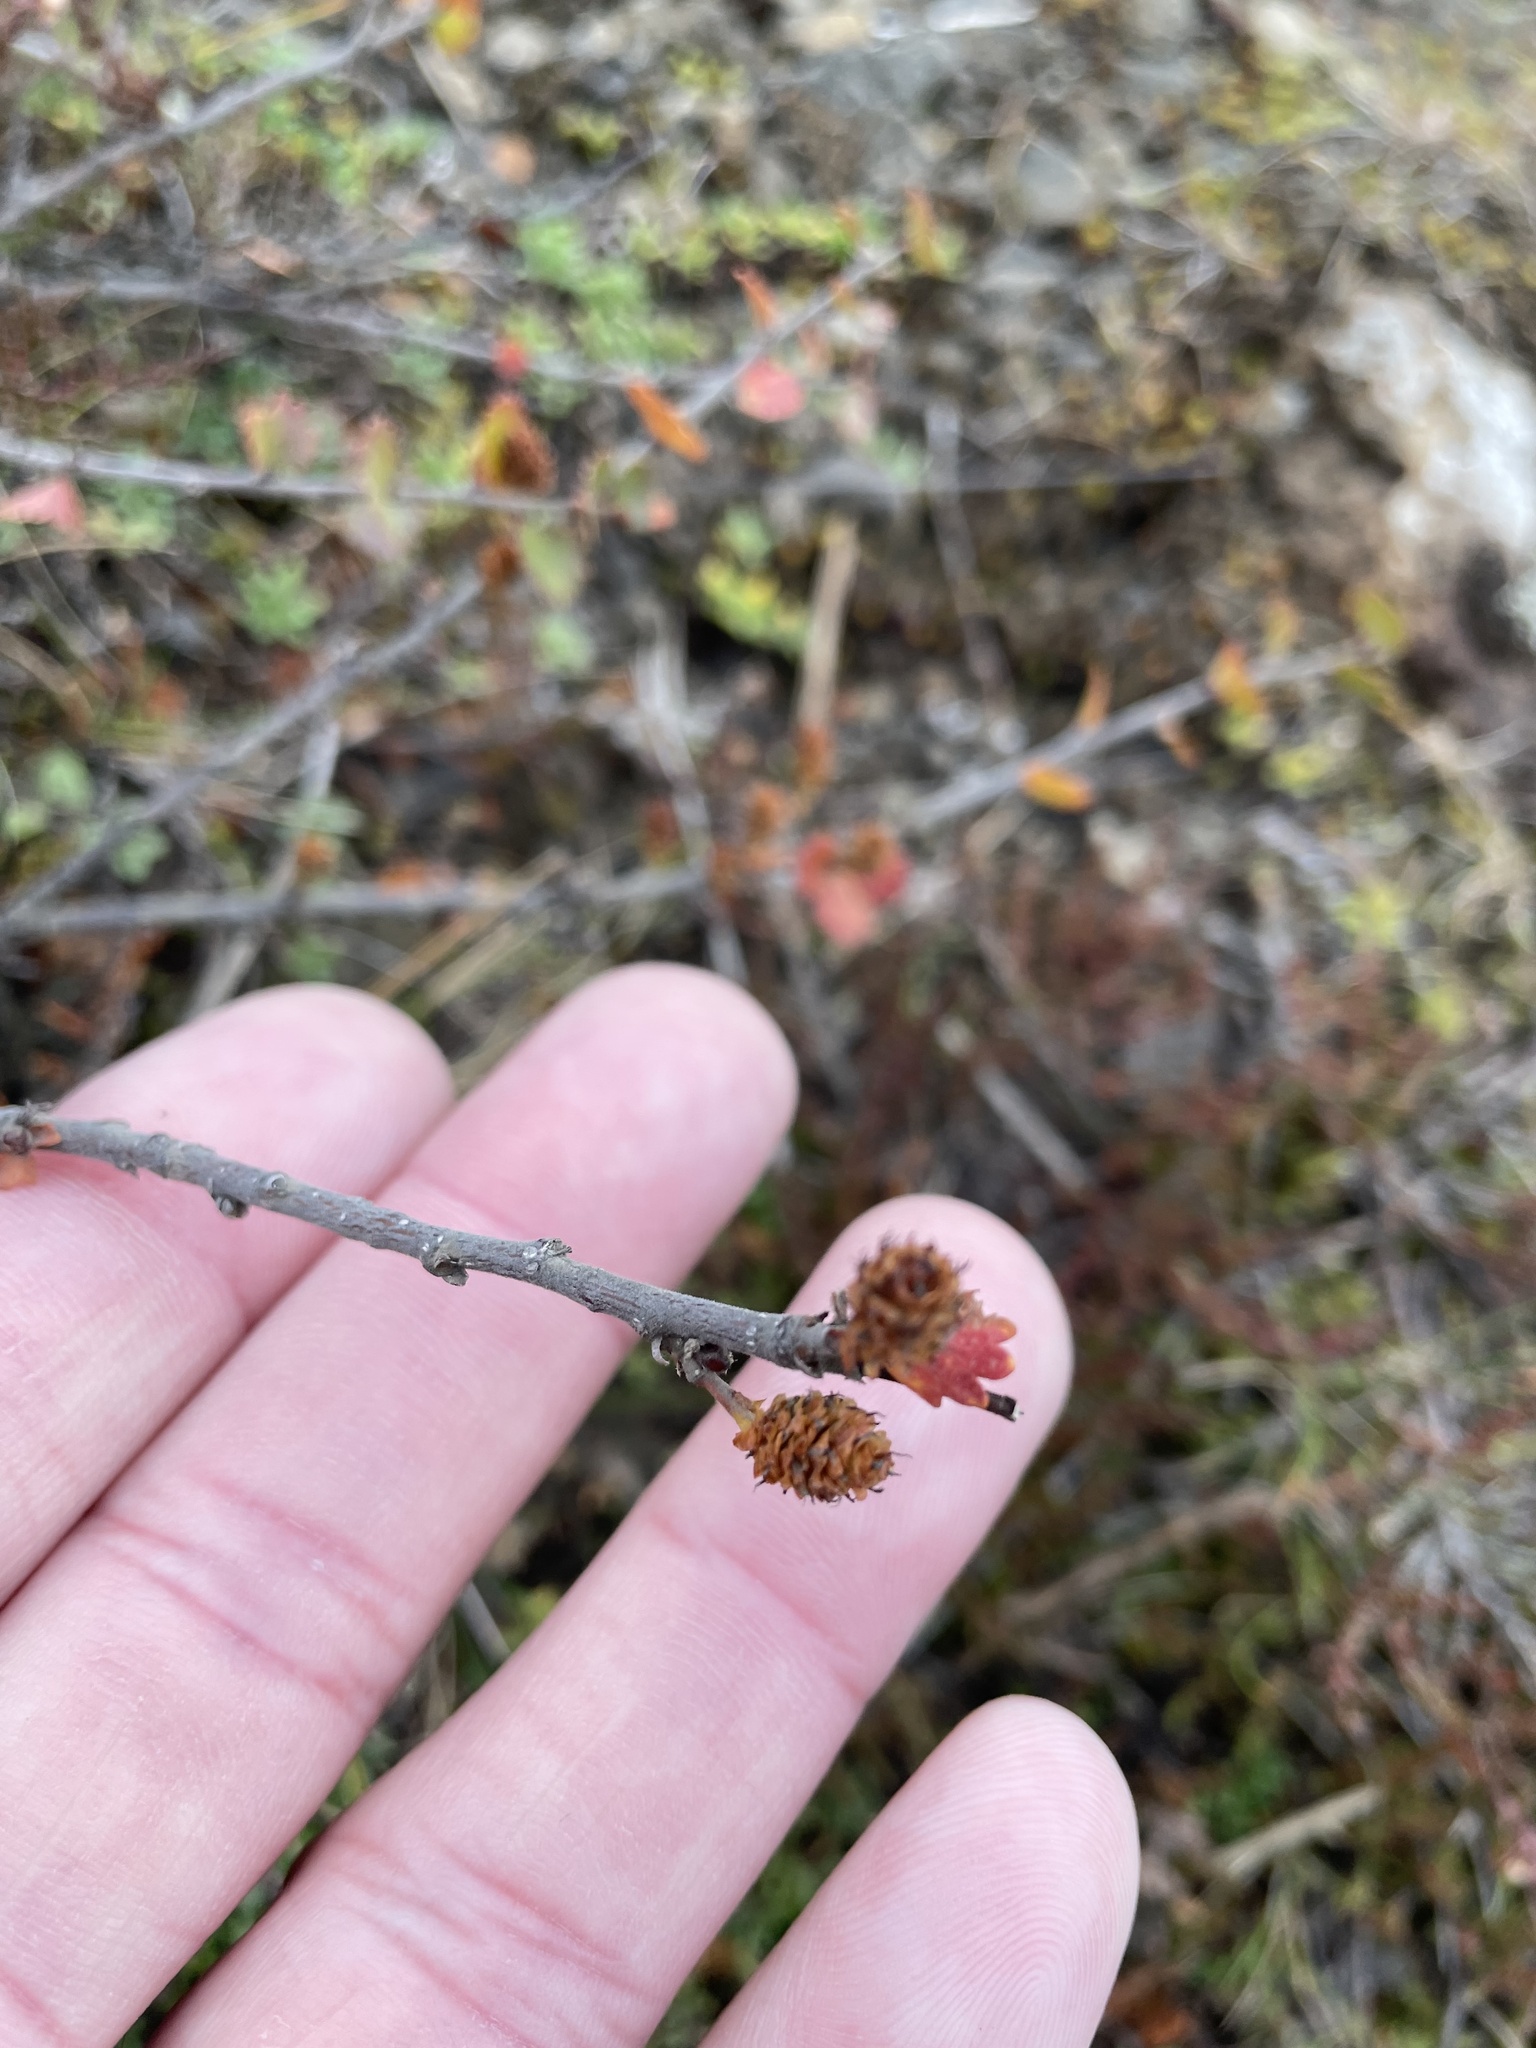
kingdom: Plantae
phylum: Tracheophyta
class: Magnoliopsida
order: Fagales
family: Betulaceae
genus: Betula
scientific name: Betula nana
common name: Arctic dwarf birch
